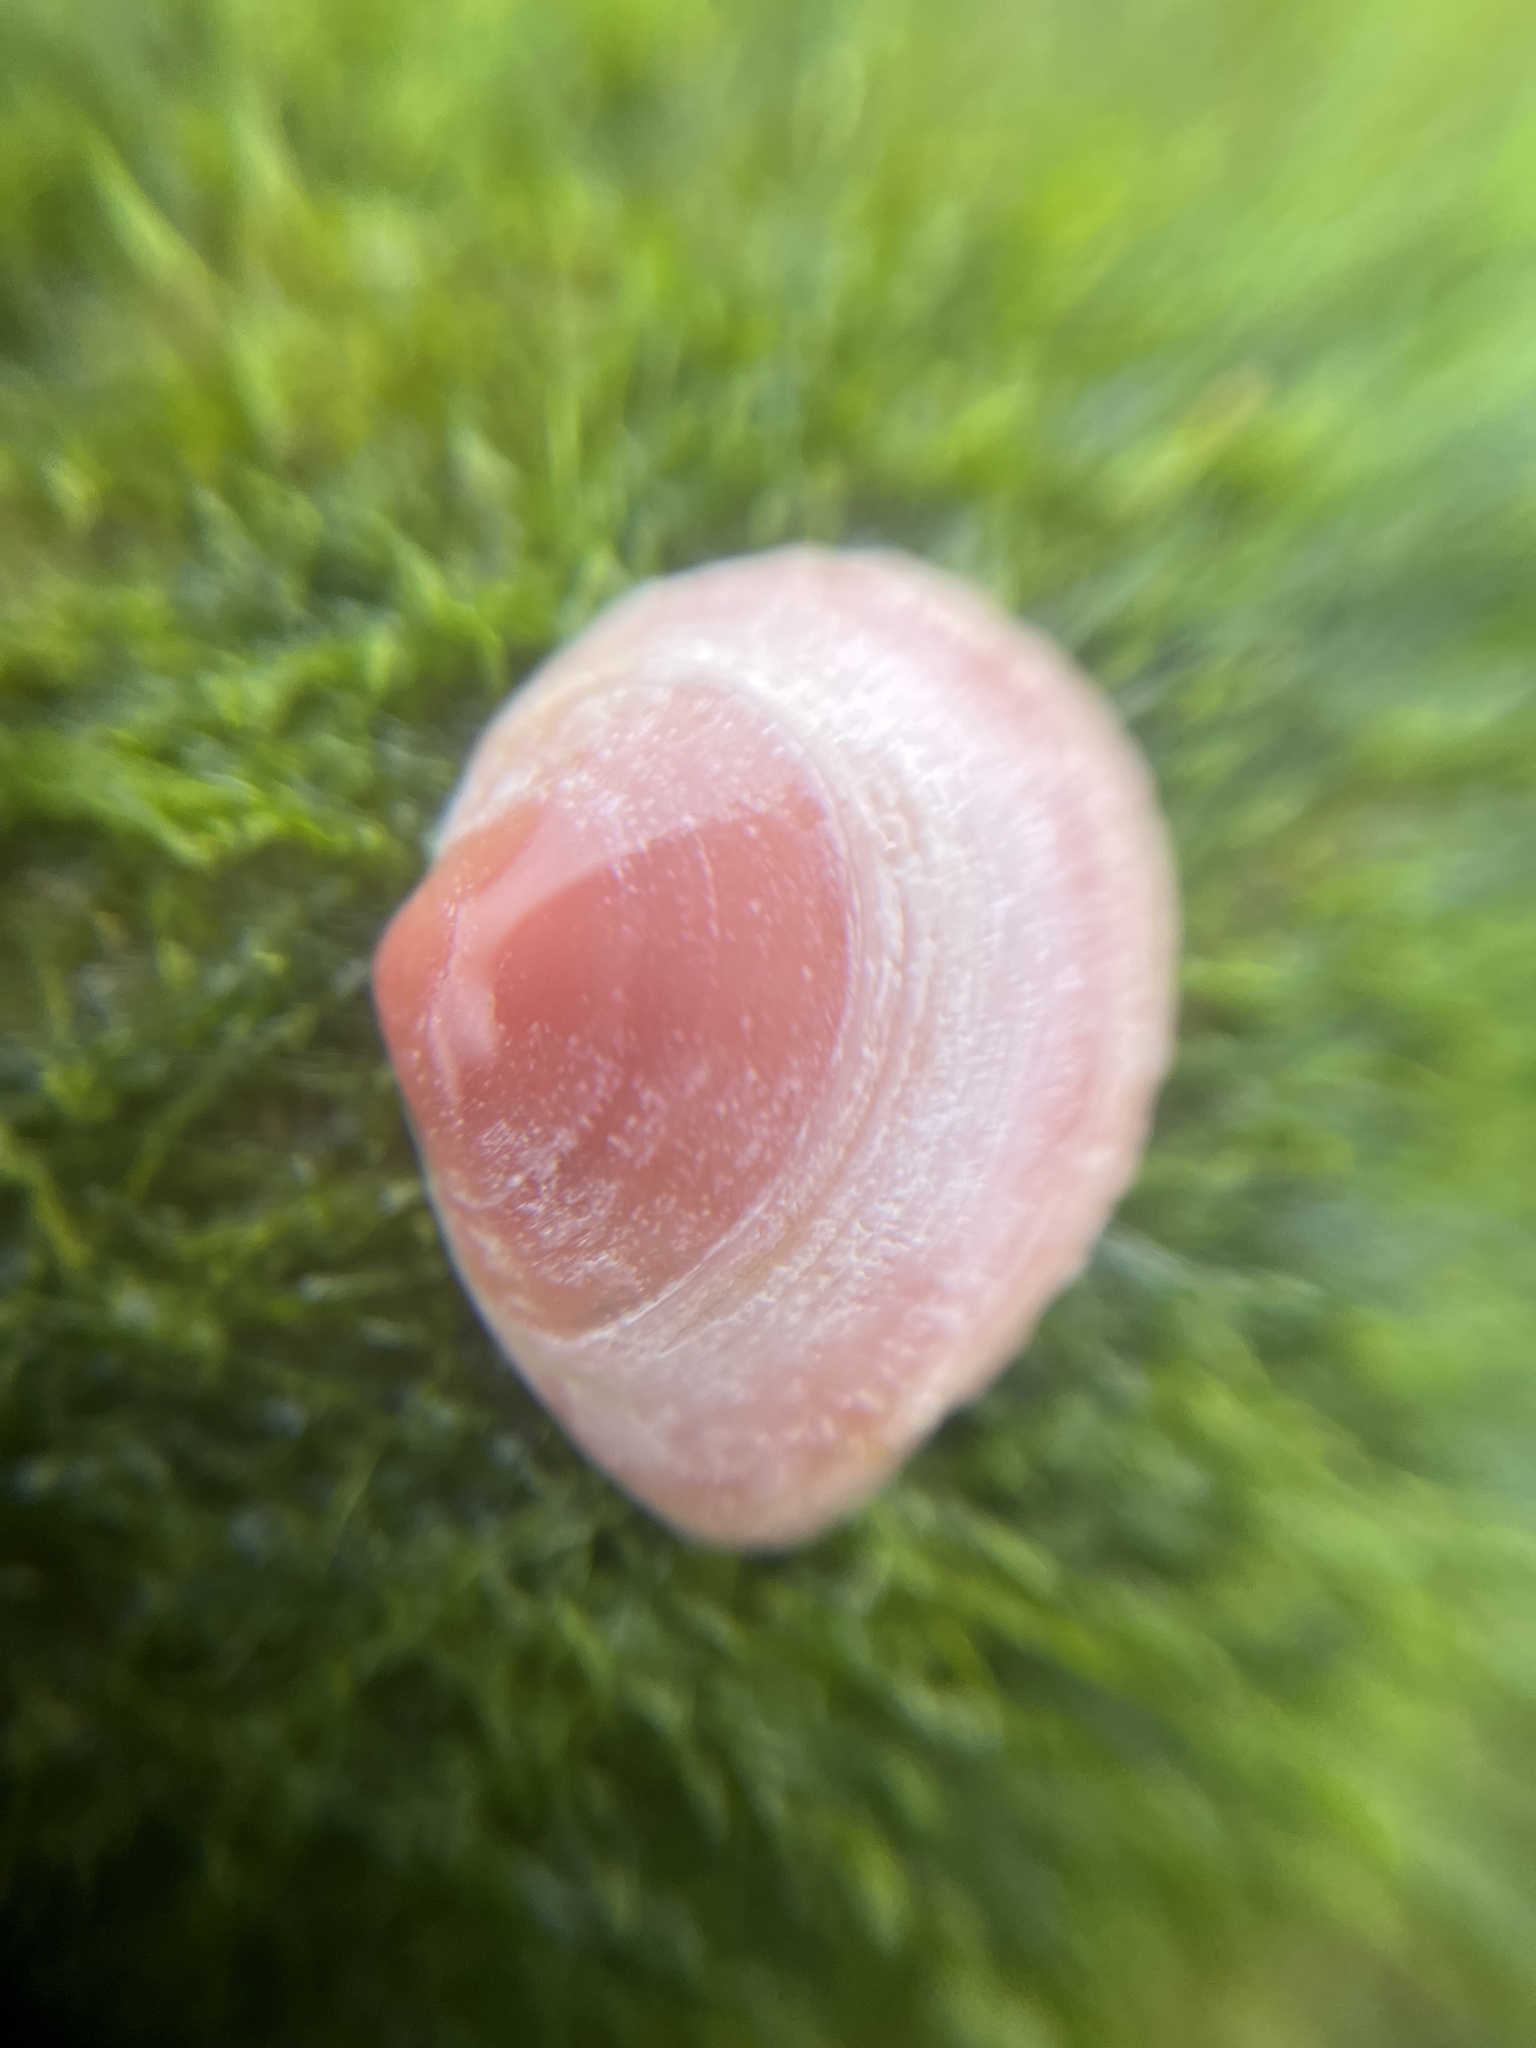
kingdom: Animalia
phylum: Mollusca
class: Bivalvia
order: Cardiida
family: Tellinidae
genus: Macoma
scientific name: Macoma balthica
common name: Baltic tellin
